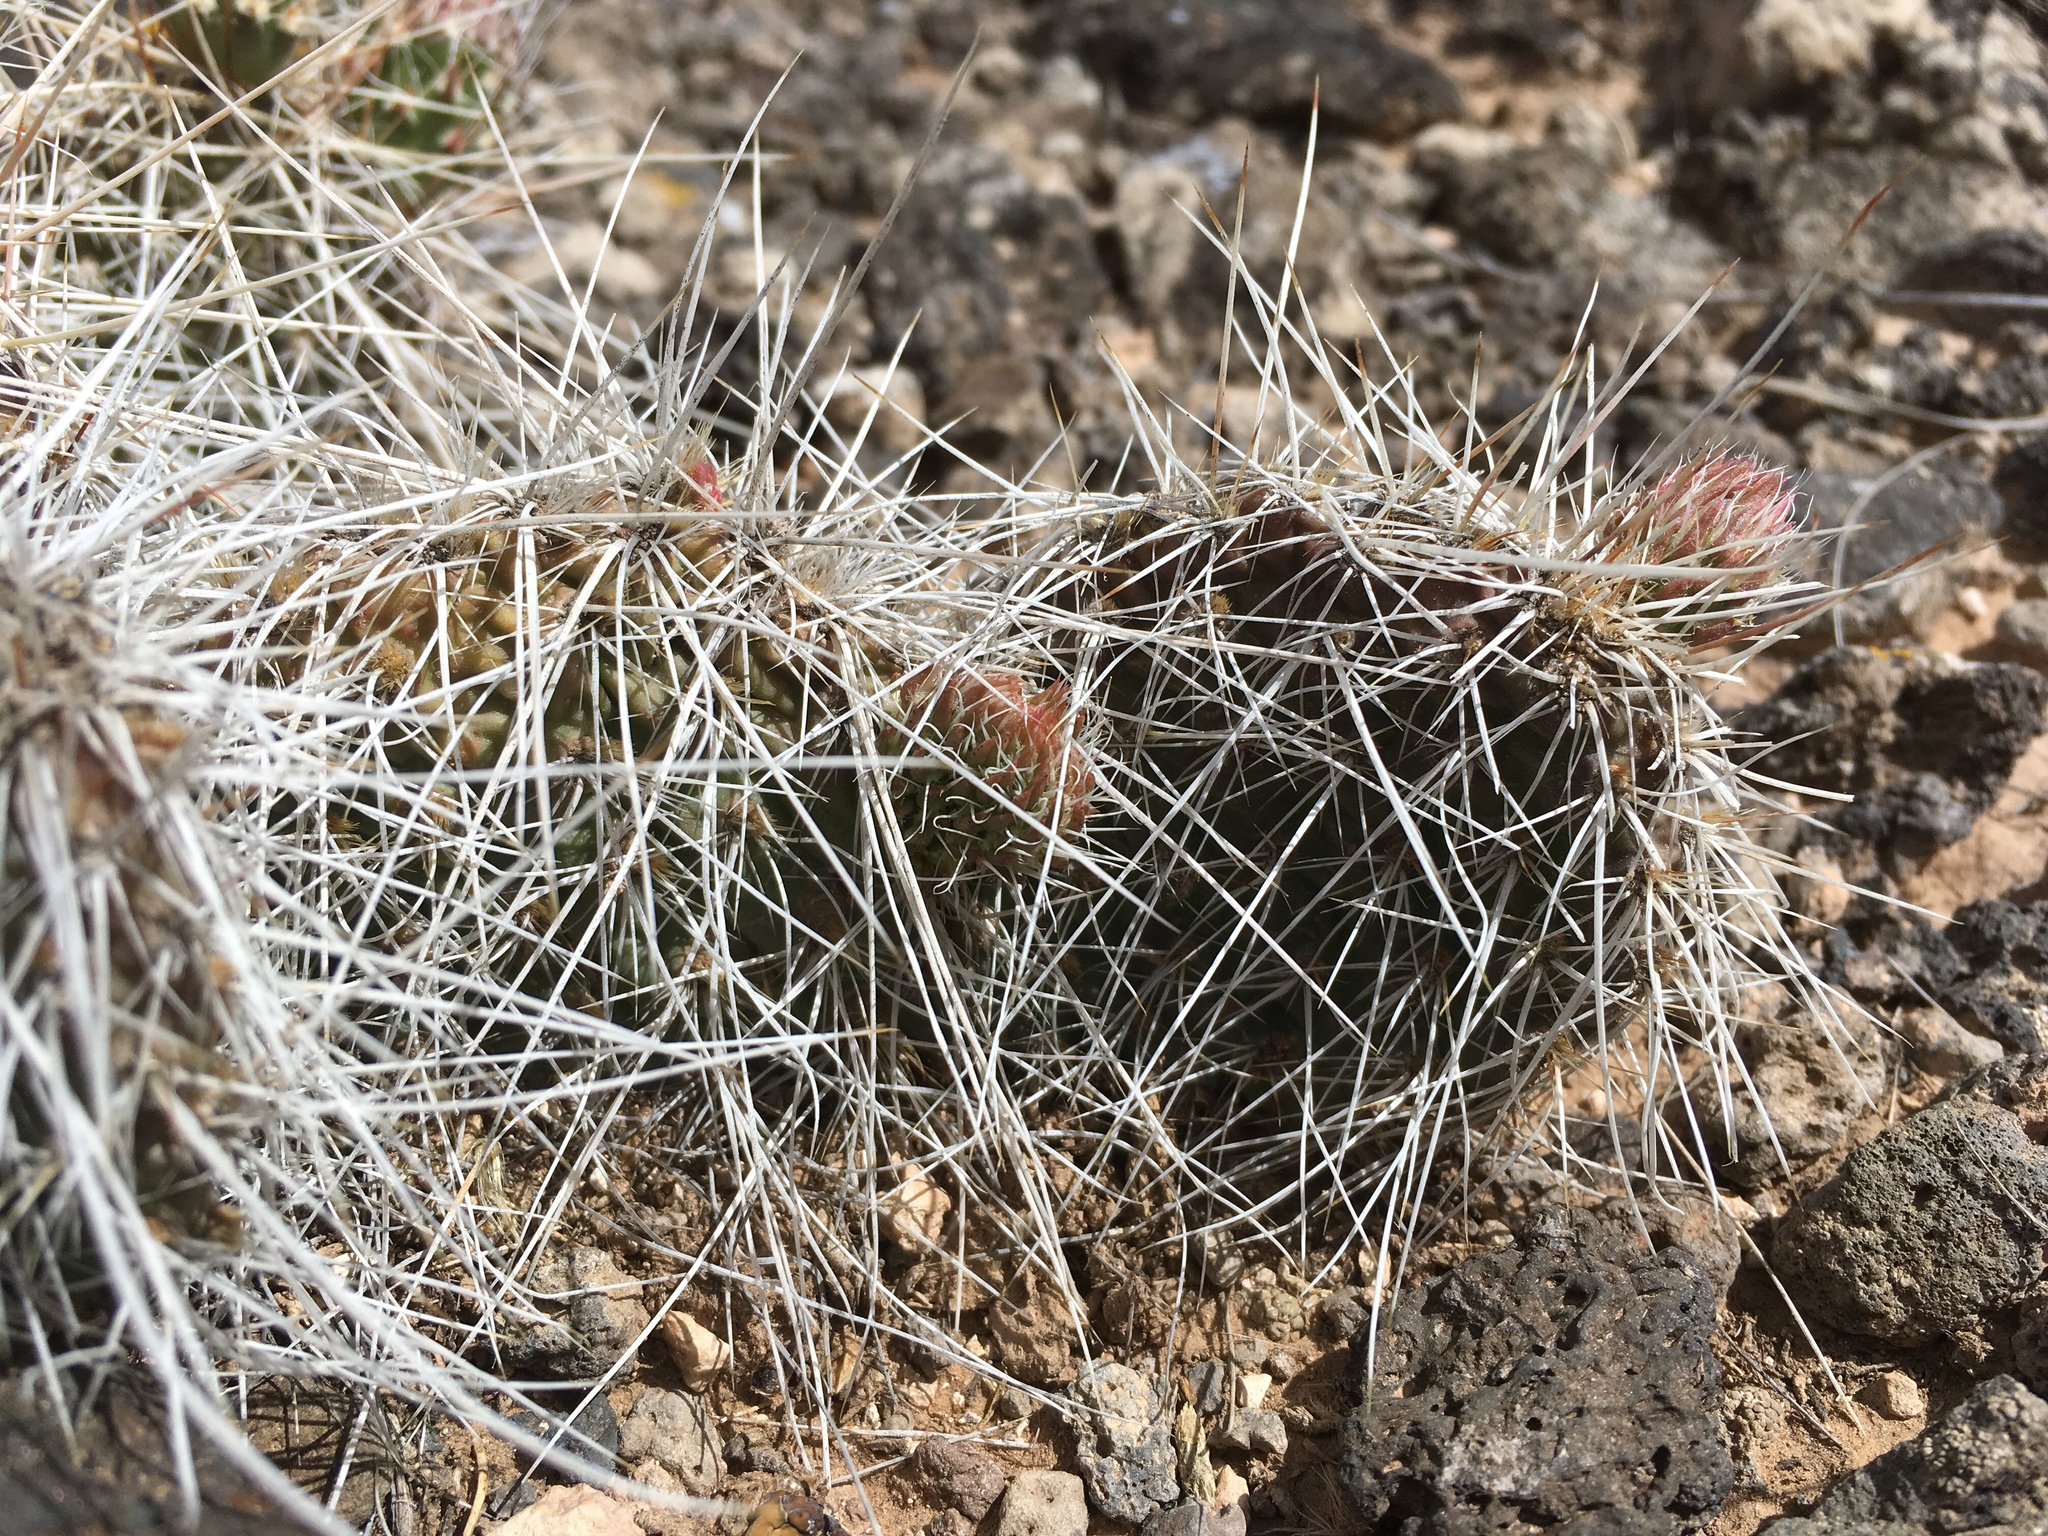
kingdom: Plantae
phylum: Tracheophyta
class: Magnoliopsida
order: Caryophyllales
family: Cactaceae
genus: Opuntia
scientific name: Opuntia polyacantha
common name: Plains prickly-pear
